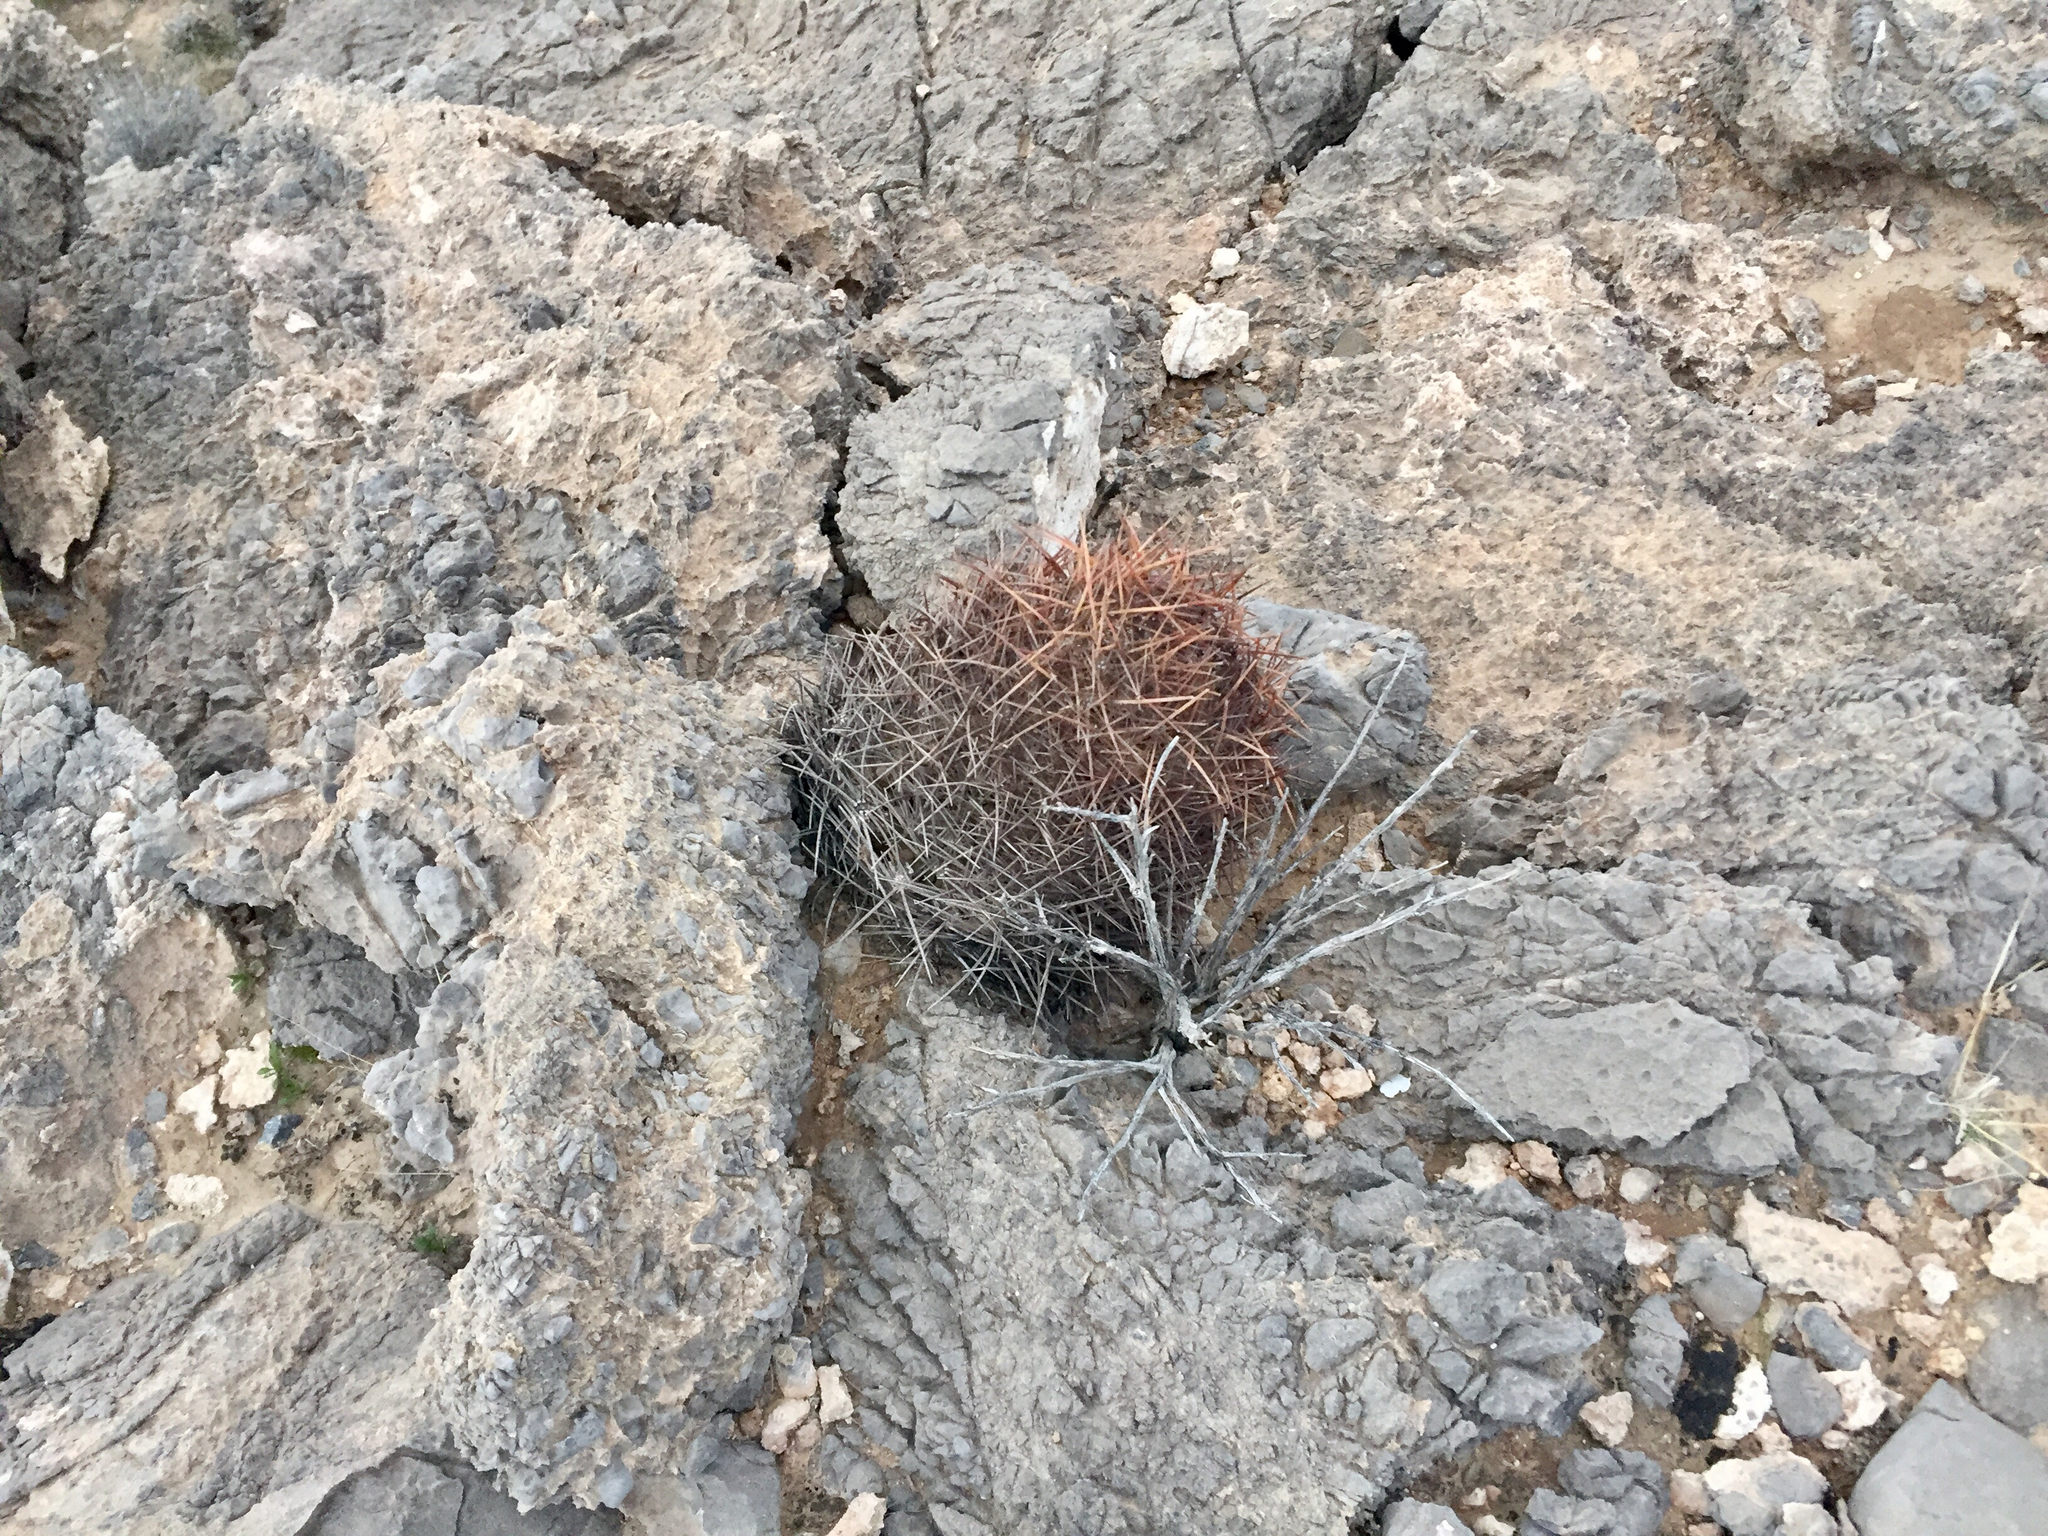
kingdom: Plantae
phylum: Tracheophyta
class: Magnoliopsida
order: Caryophyllales
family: Cactaceae
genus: Echinocactus
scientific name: Echinocactus polycephalus
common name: Cottontop cactus
